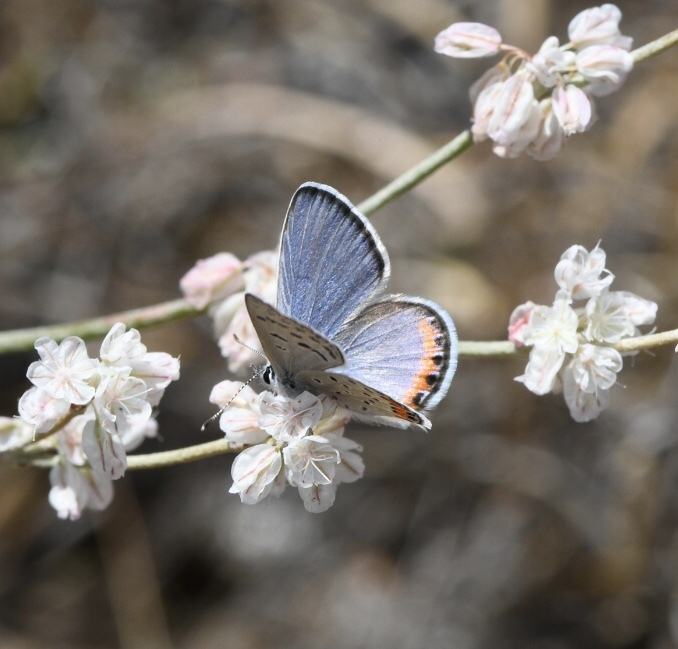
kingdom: Animalia
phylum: Arthropoda
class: Insecta
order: Lepidoptera
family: Lycaenidae
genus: Icaricia
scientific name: Icaricia acmon
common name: Acmon blue
